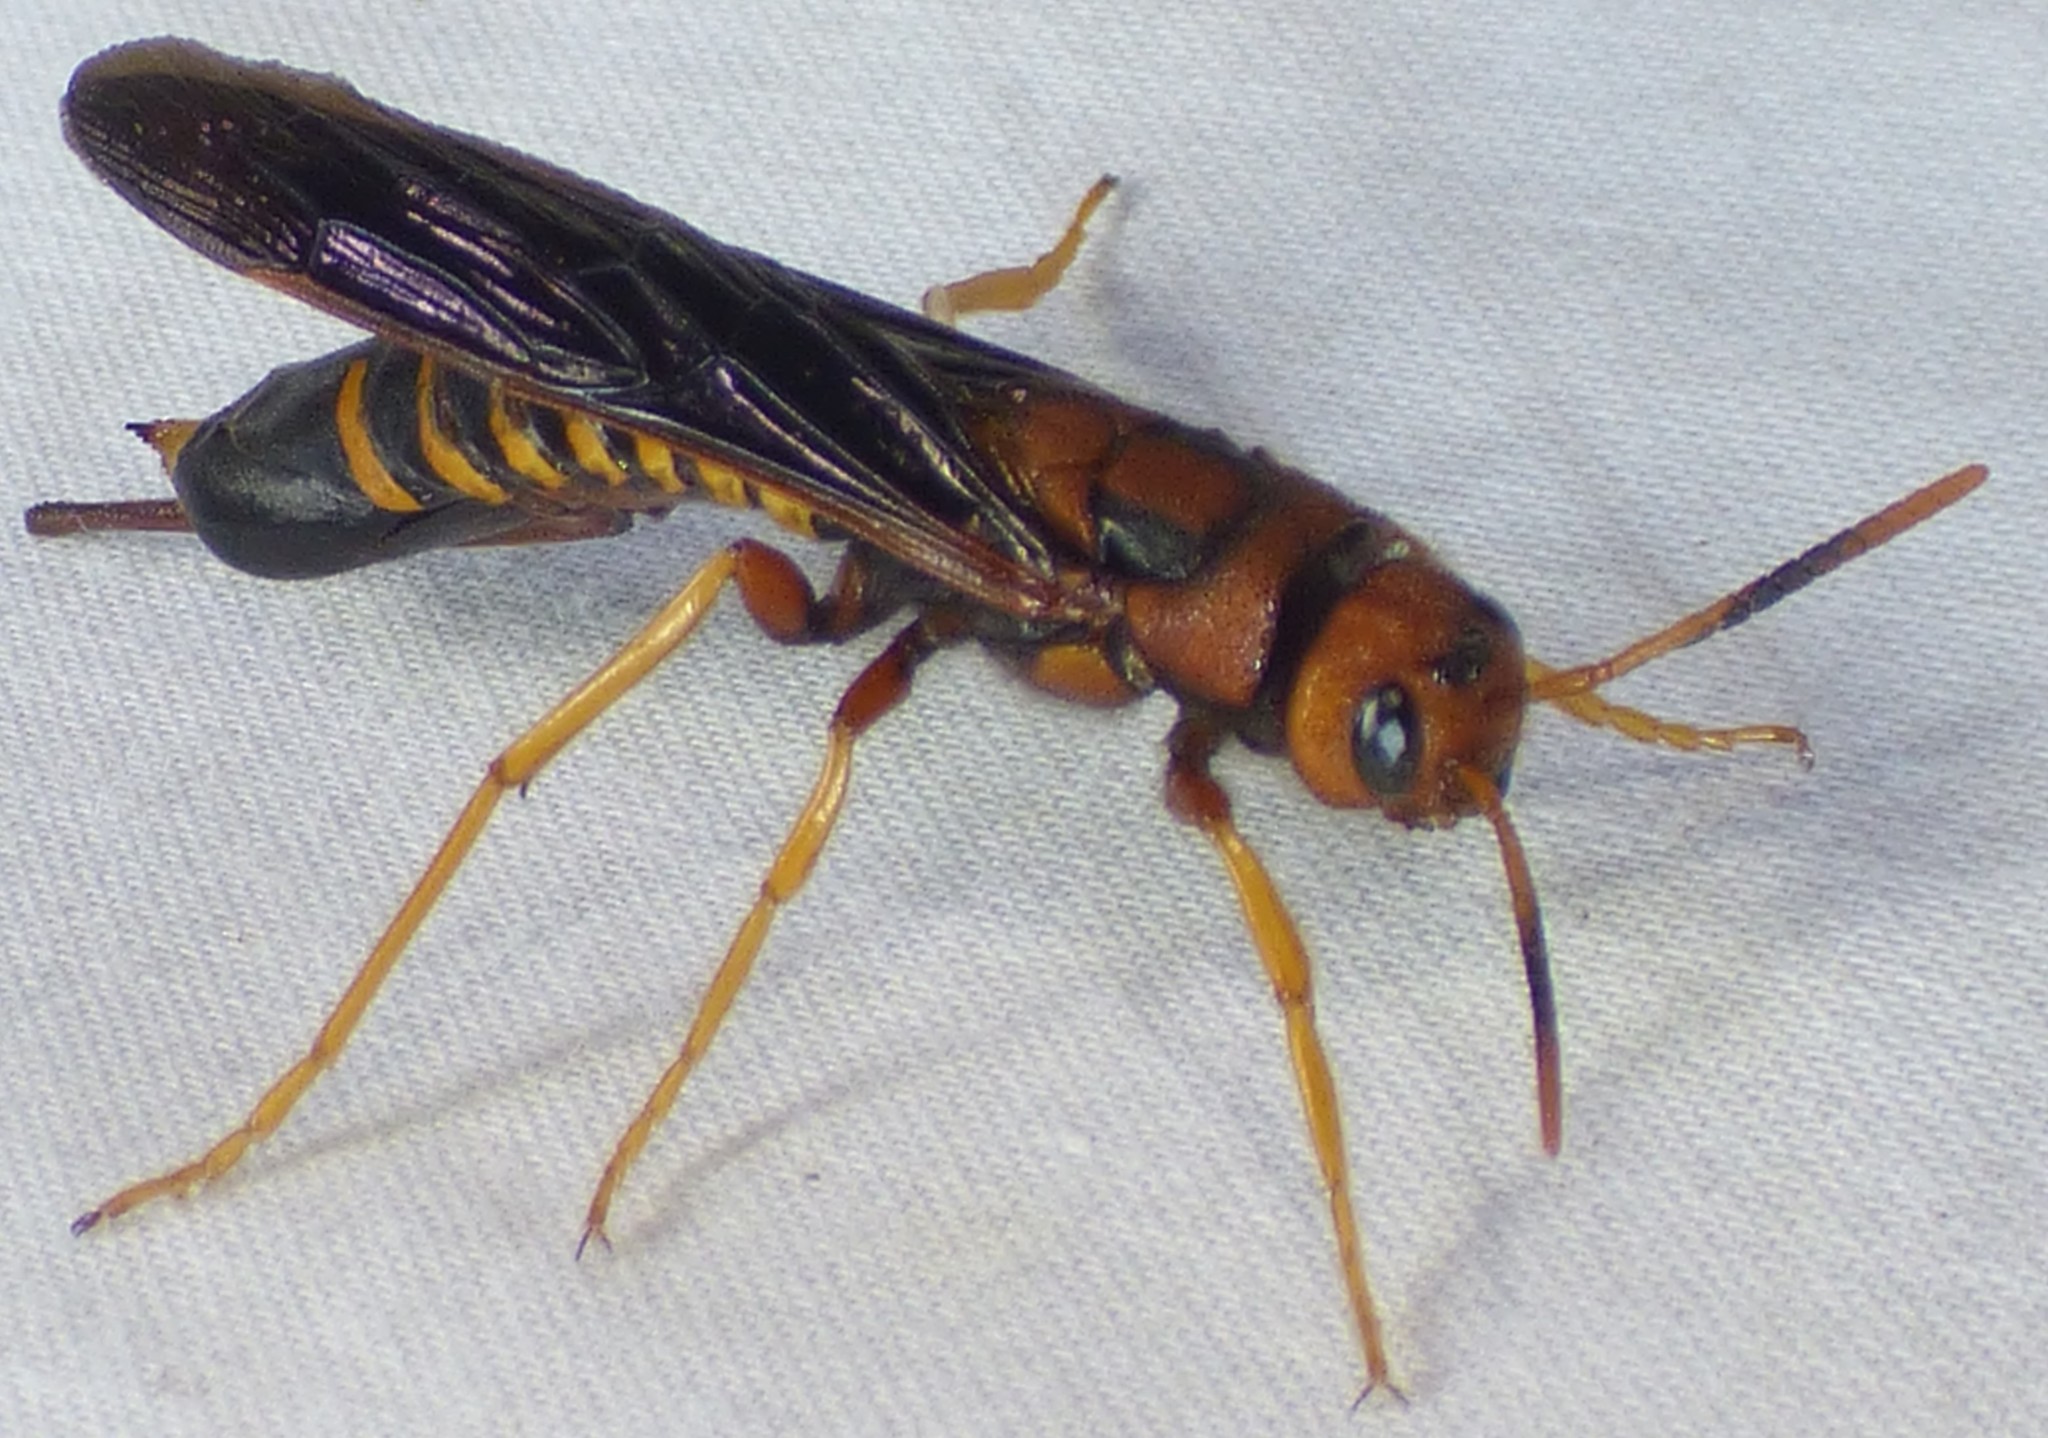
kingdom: Animalia
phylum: Arthropoda
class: Insecta
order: Hymenoptera
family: Siricidae
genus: Tremex
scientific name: Tremex columba
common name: Wasp
